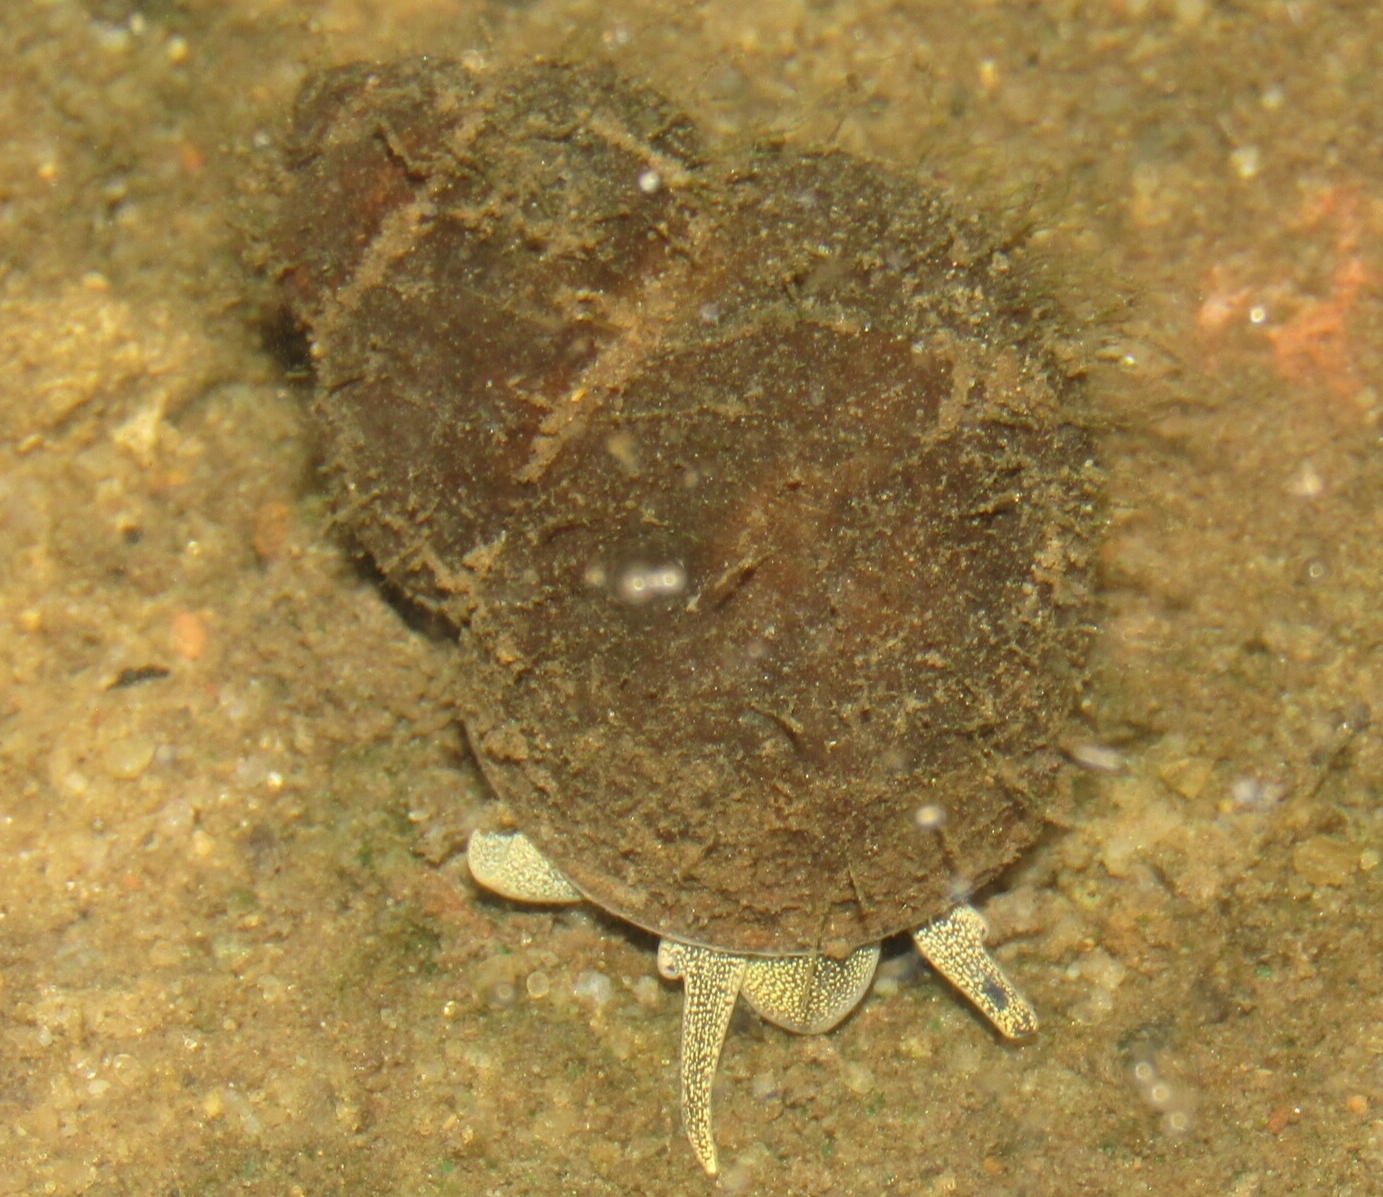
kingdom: Animalia
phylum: Mollusca
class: Gastropoda
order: Architaenioglossa
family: Viviparidae
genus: Viviparus
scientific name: Viviparus viviparus
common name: River snail
